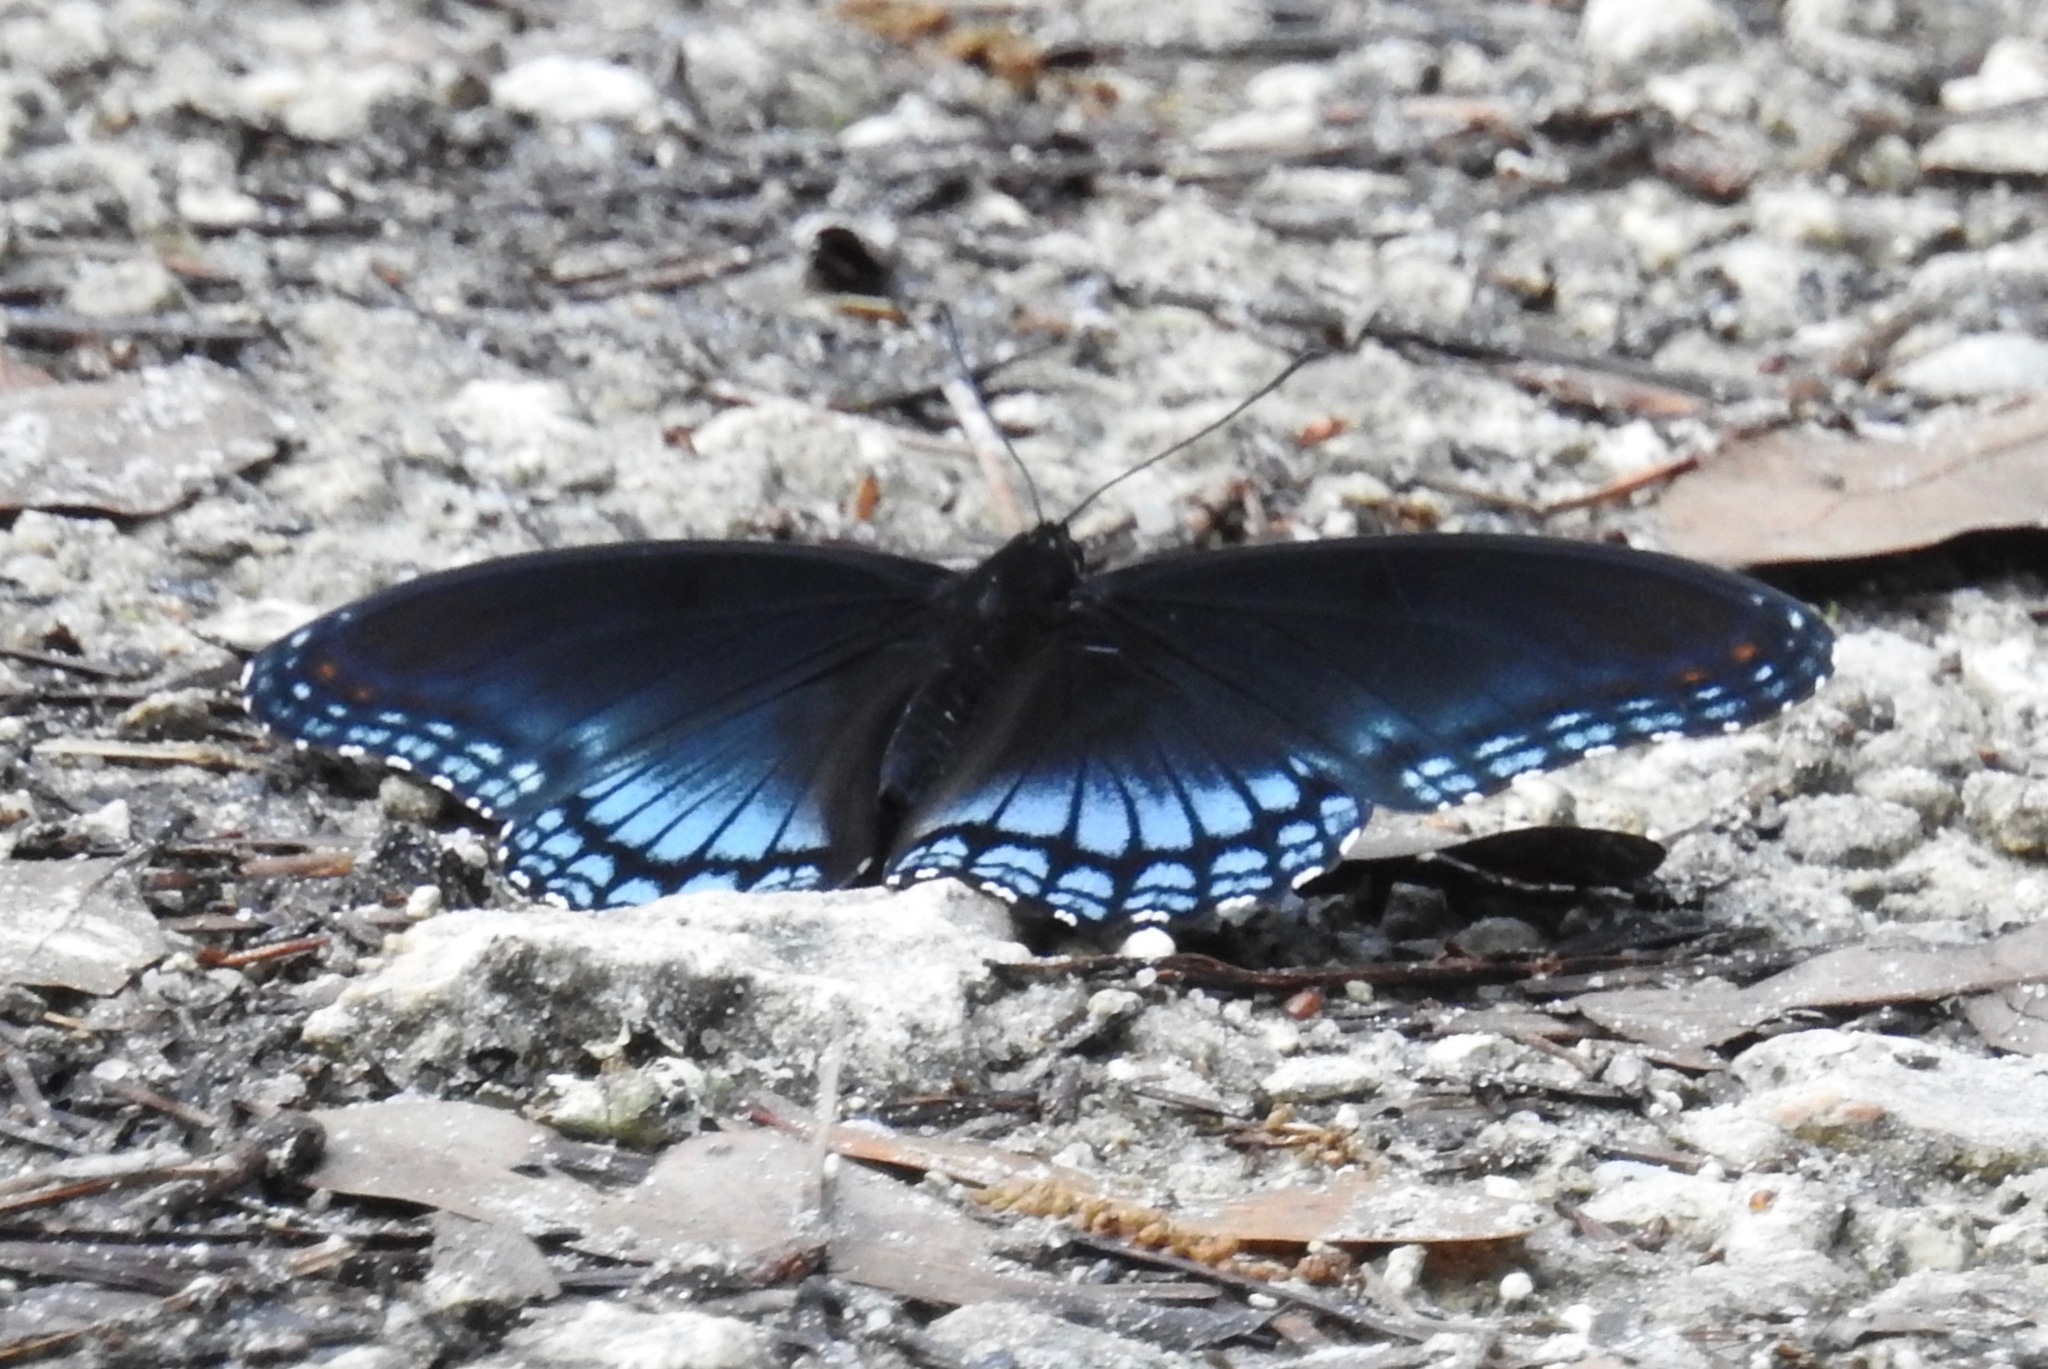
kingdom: Animalia
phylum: Arthropoda
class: Insecta
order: Lepidoptera
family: Nymphalidae
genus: Limenitis
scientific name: Limenitis astyanax
